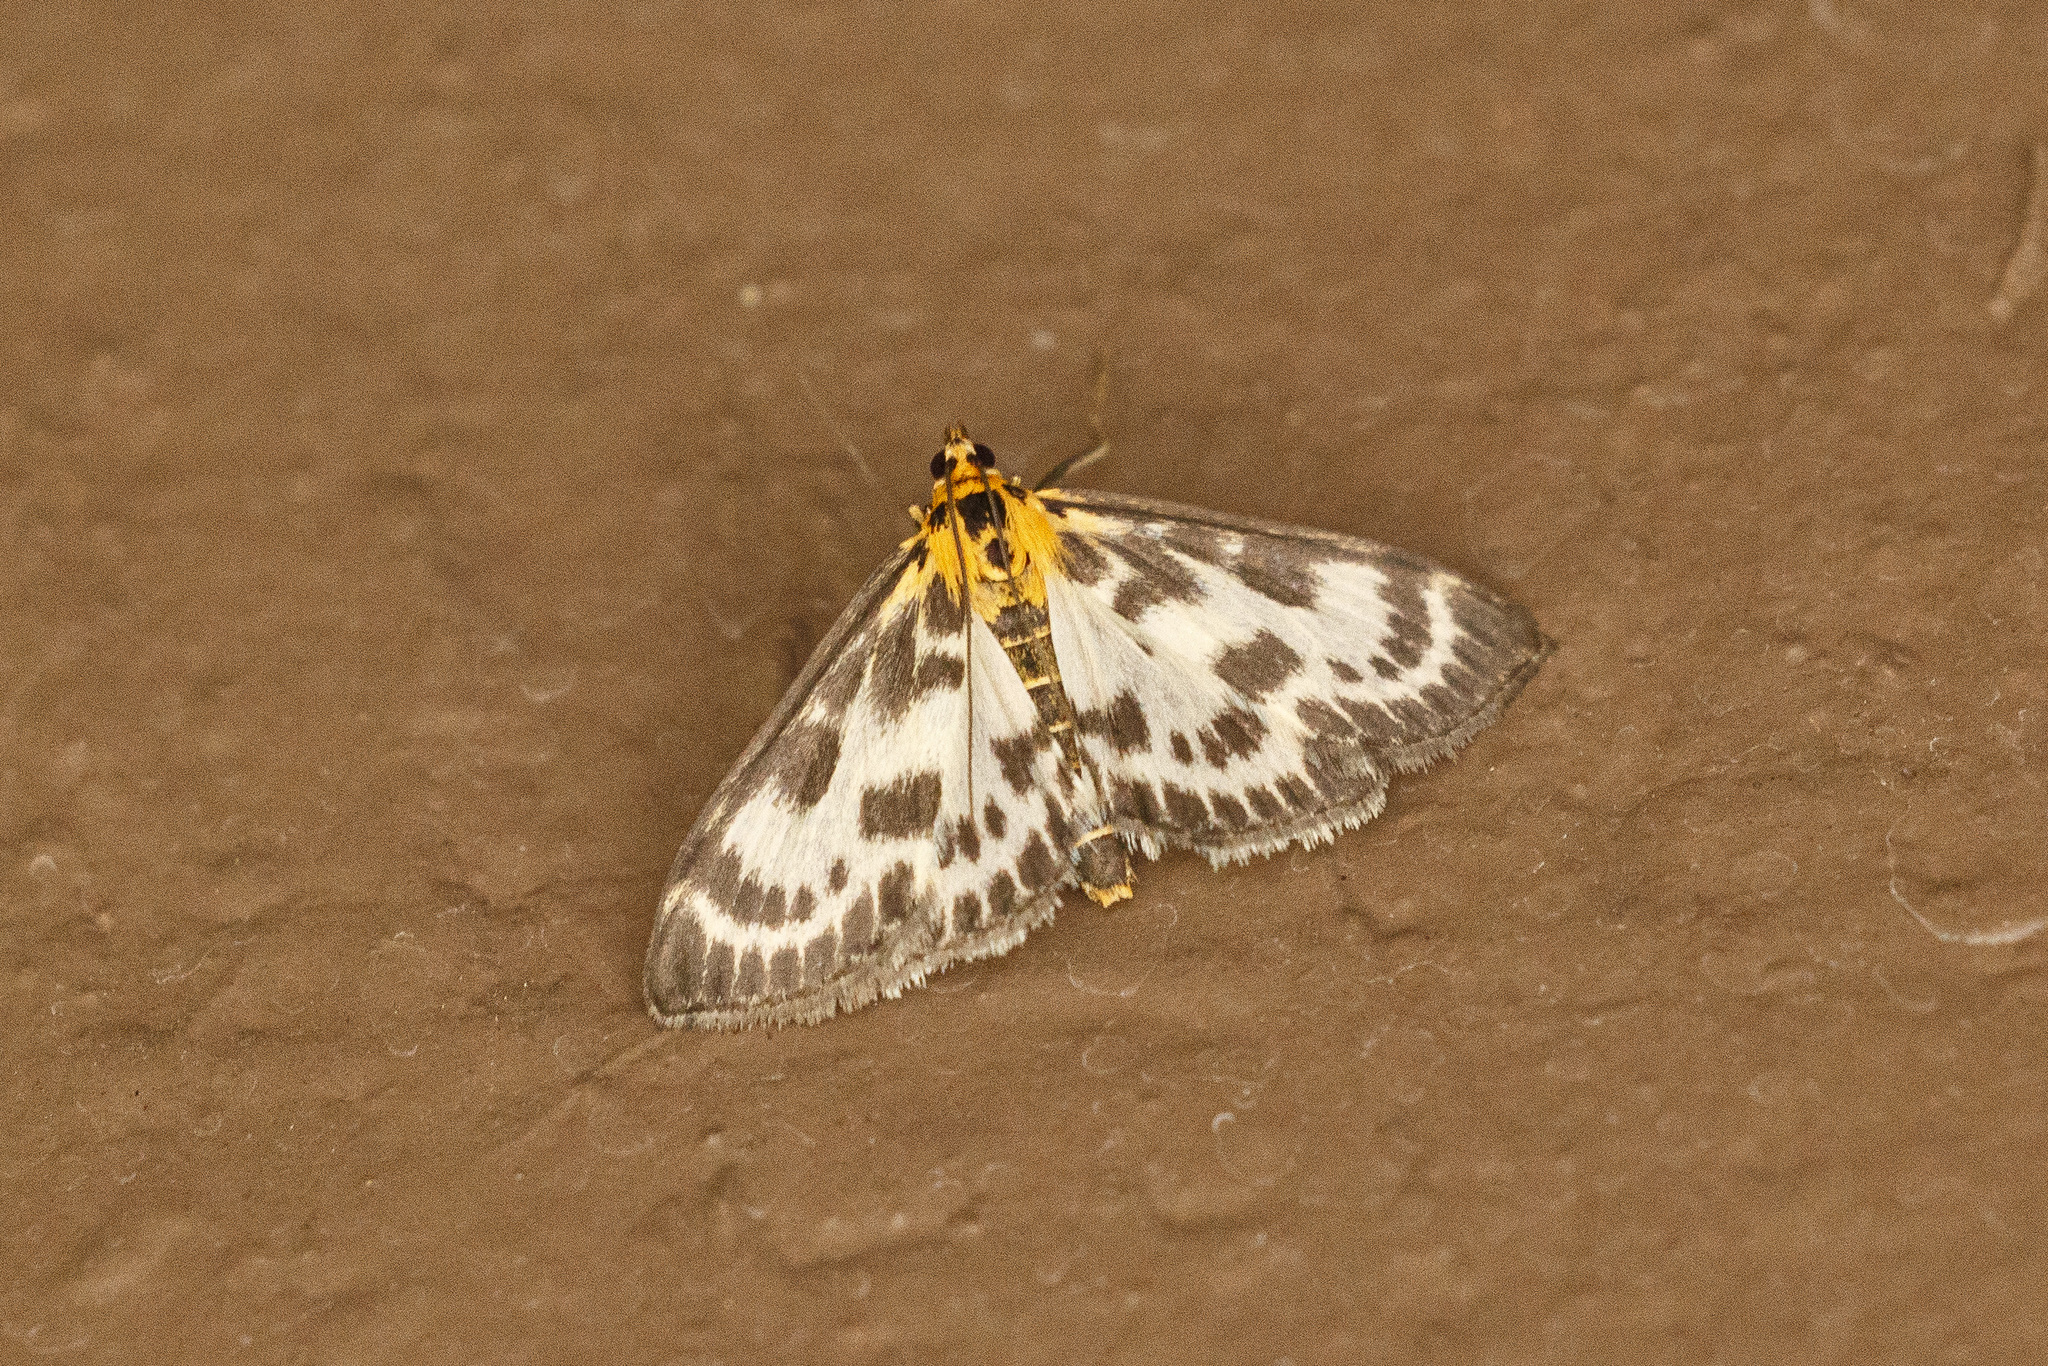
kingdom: Animalia
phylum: Arthropoda
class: Insecta
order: Lepidoptera
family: Crambidae
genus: Anania
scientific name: Anania hortulata
